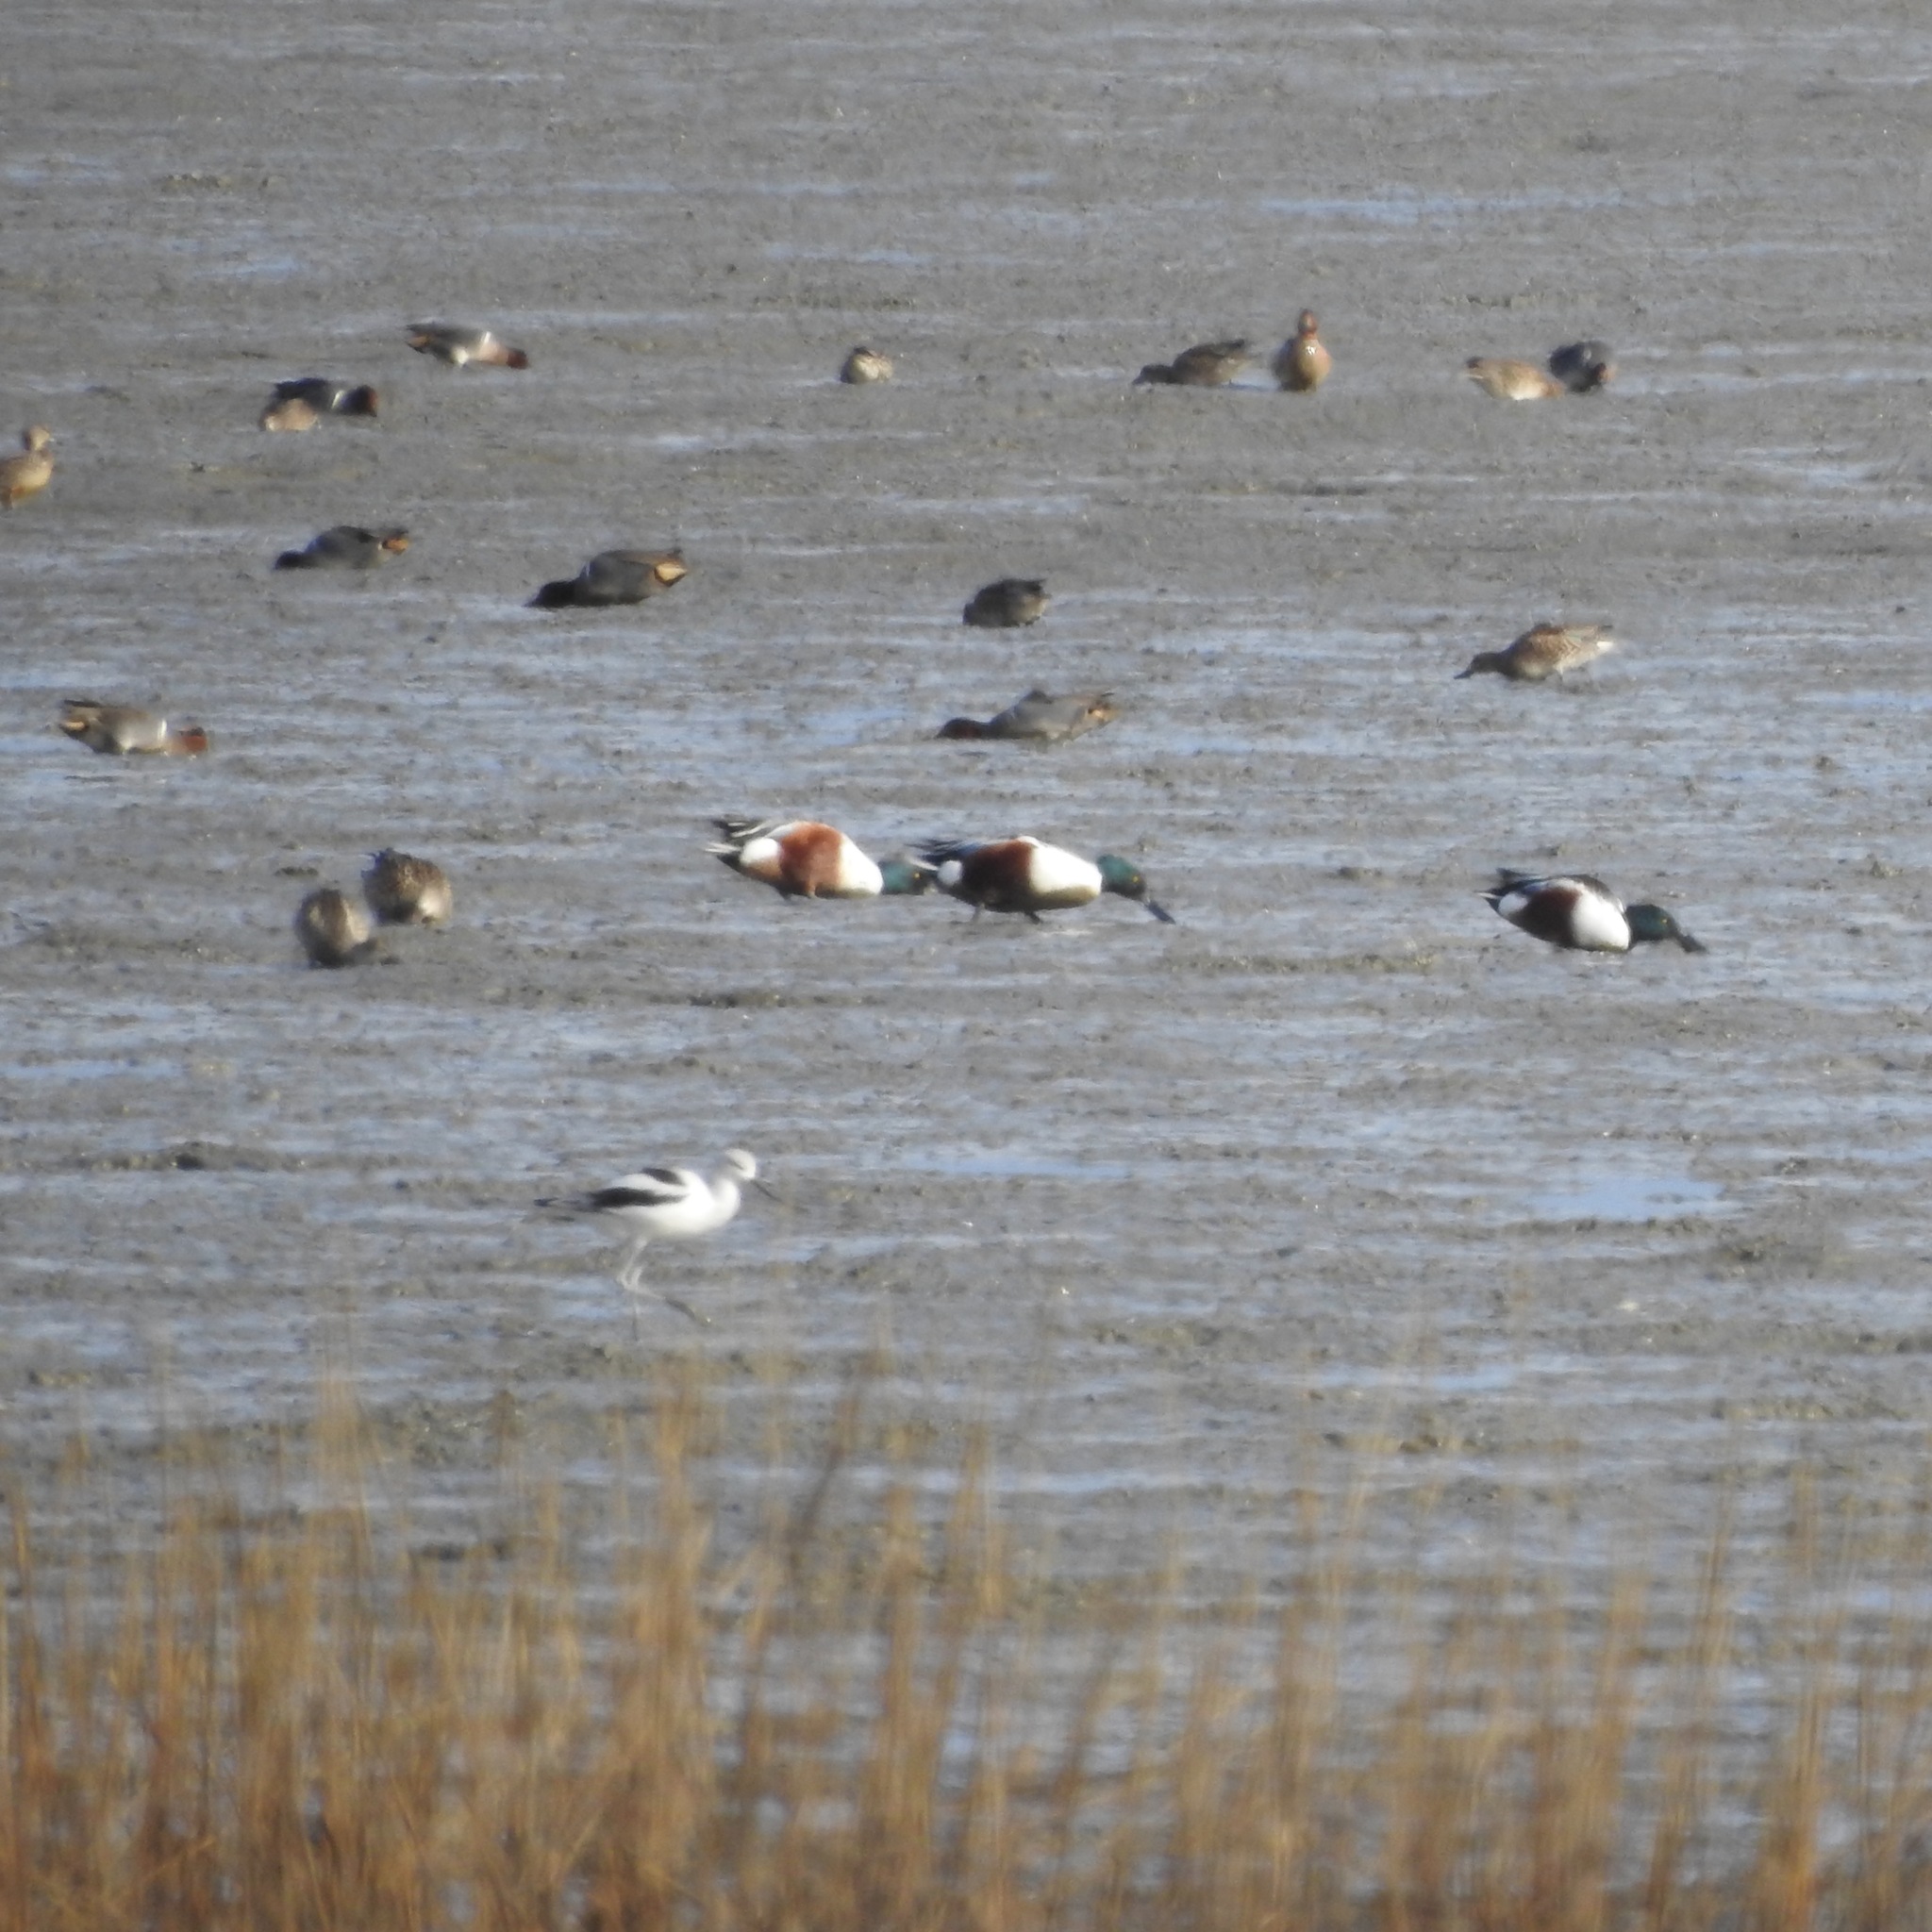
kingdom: Animalia
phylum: Chordata
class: Aves
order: Anseriformes
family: Anatidae
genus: Spatula
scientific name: Spatula clypeata
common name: Northern shoveler
